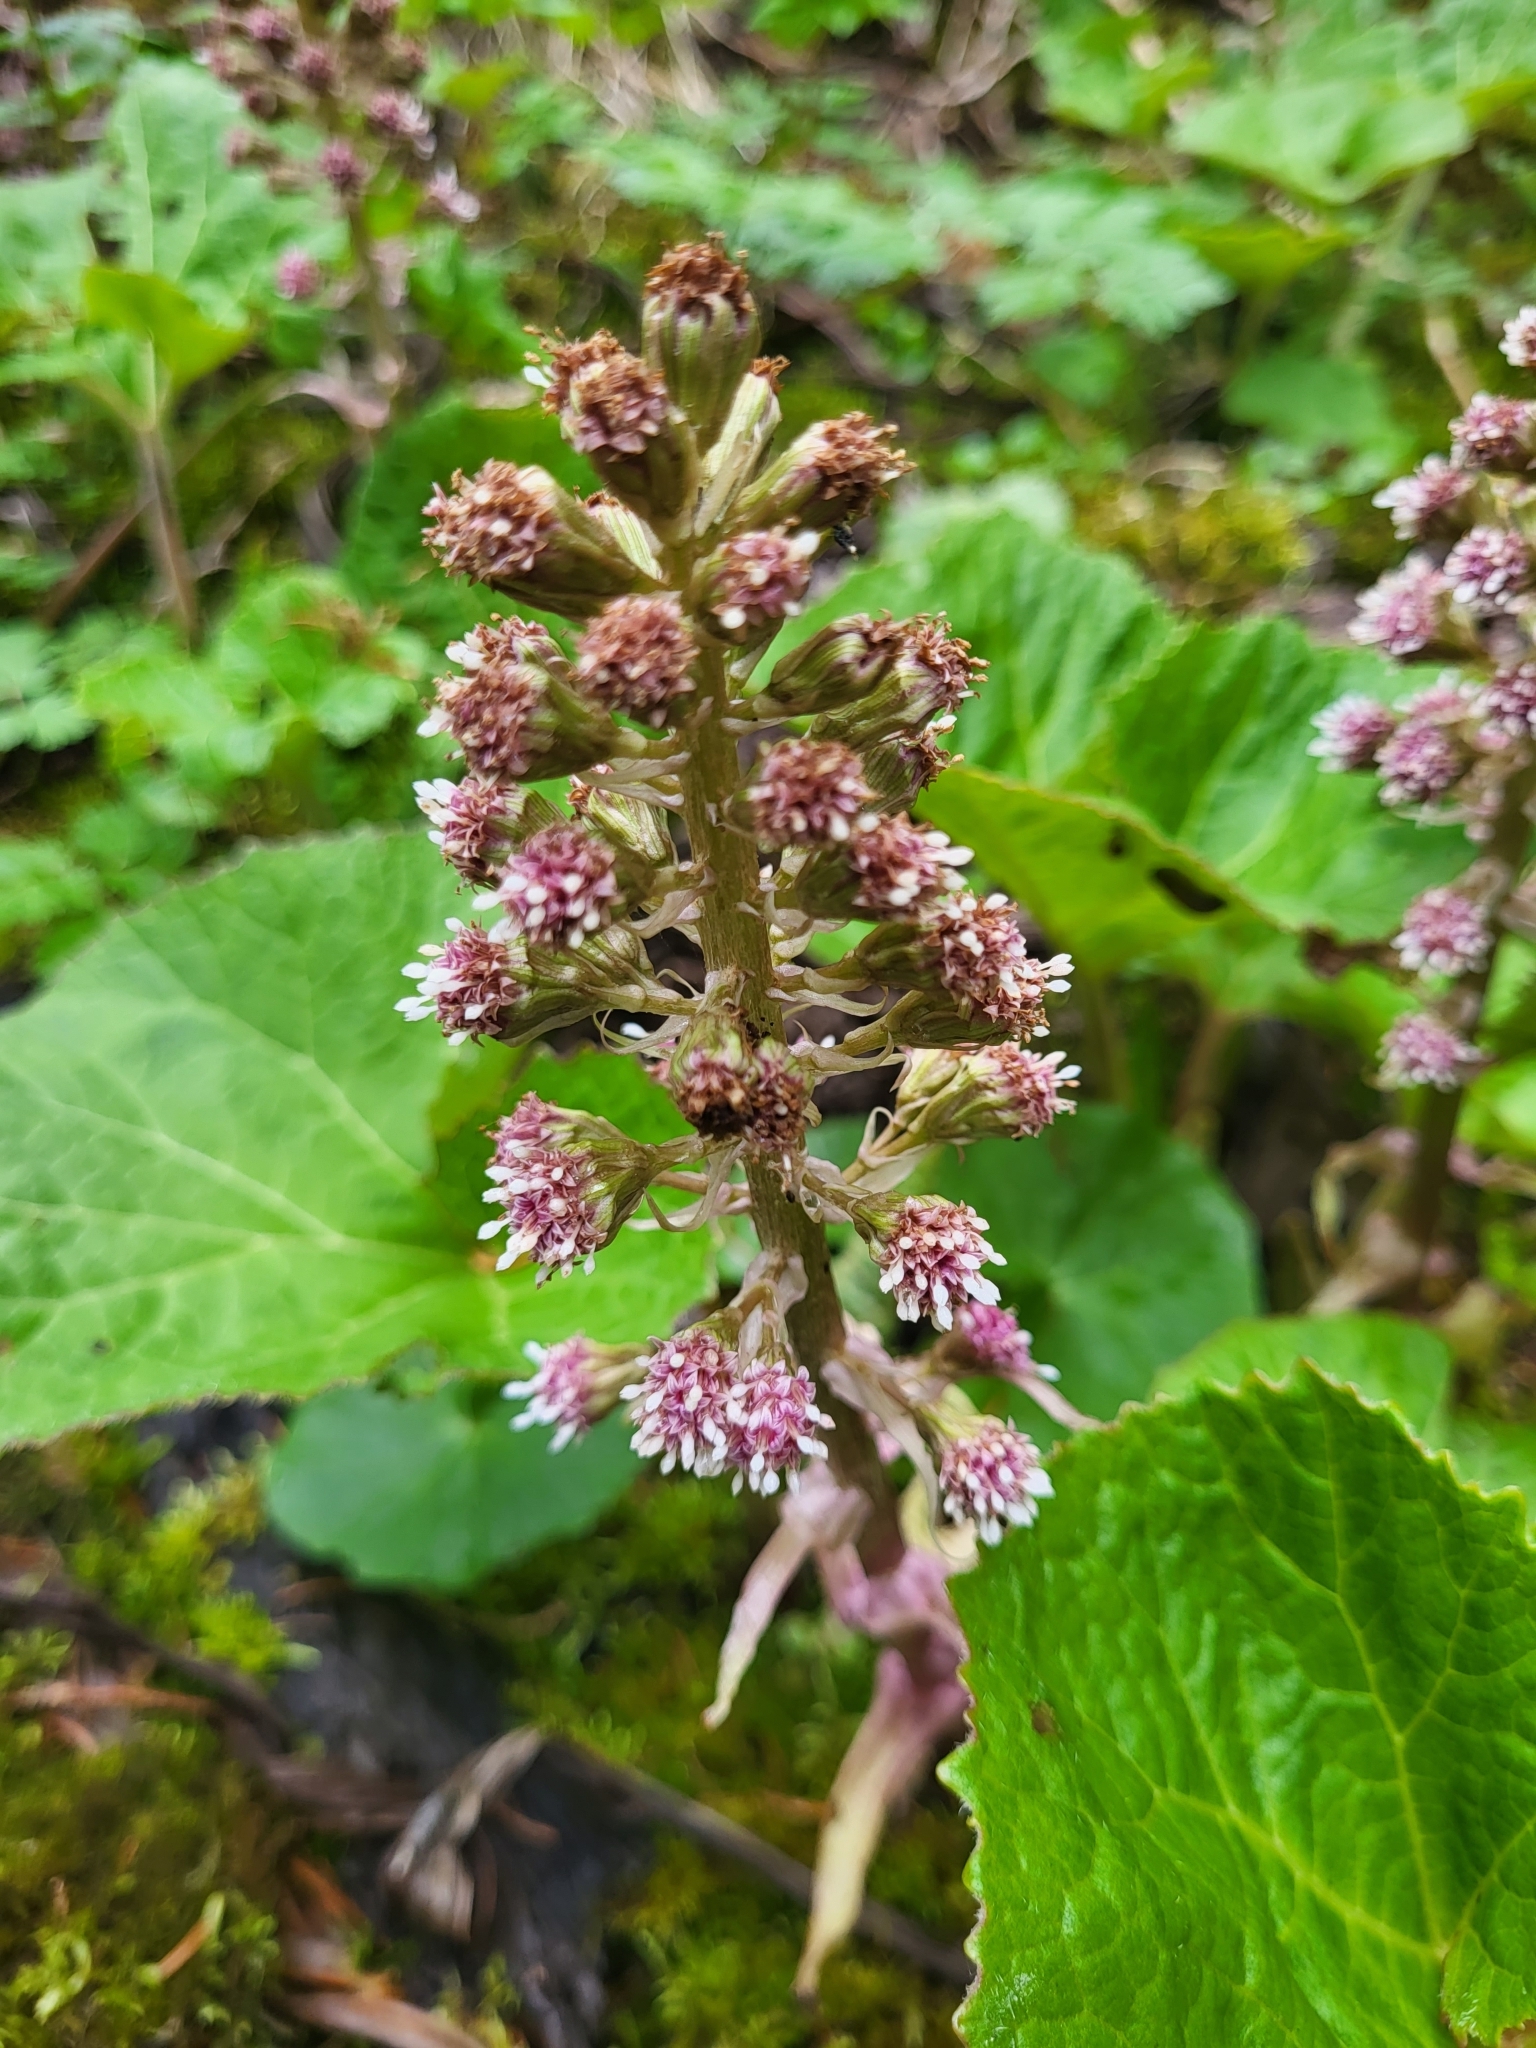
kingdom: Plantae
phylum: Tracheophyta
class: Magnoliopsida
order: Asterales
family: Asteraceae
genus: Petasites
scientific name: Petasites hybridus
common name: Butterbur
